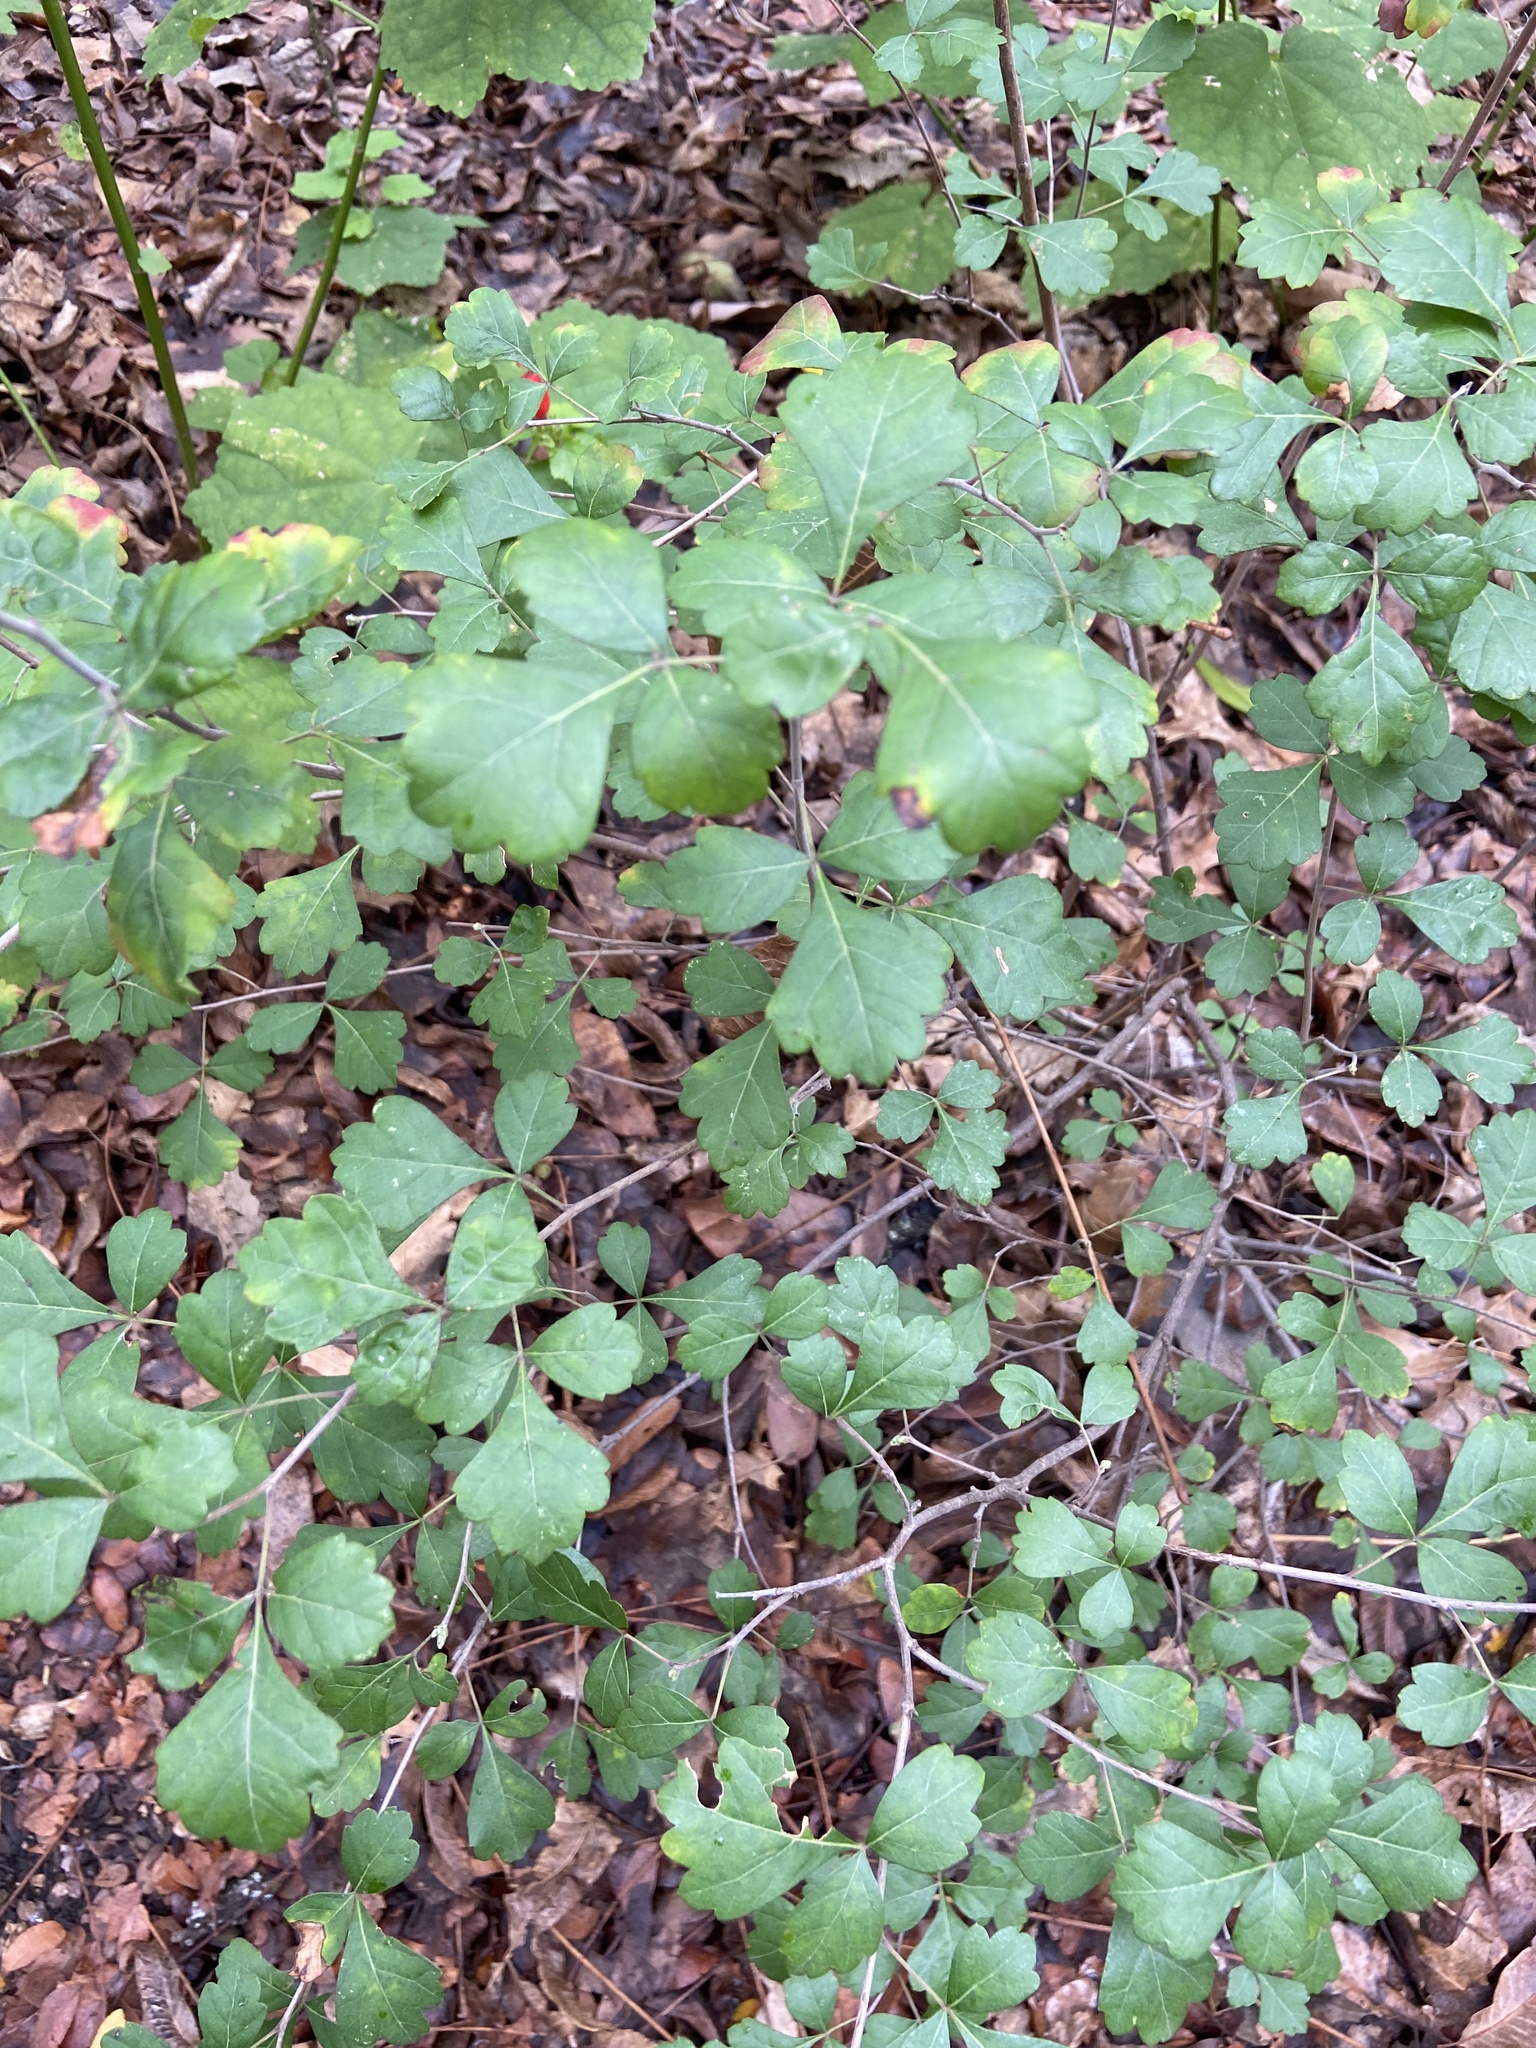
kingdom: Plantae
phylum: Tracheophyta
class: Magnoliopsida
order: Sapindales
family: Anacardiaceae
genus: Rhus
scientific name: Rhus trilobata
